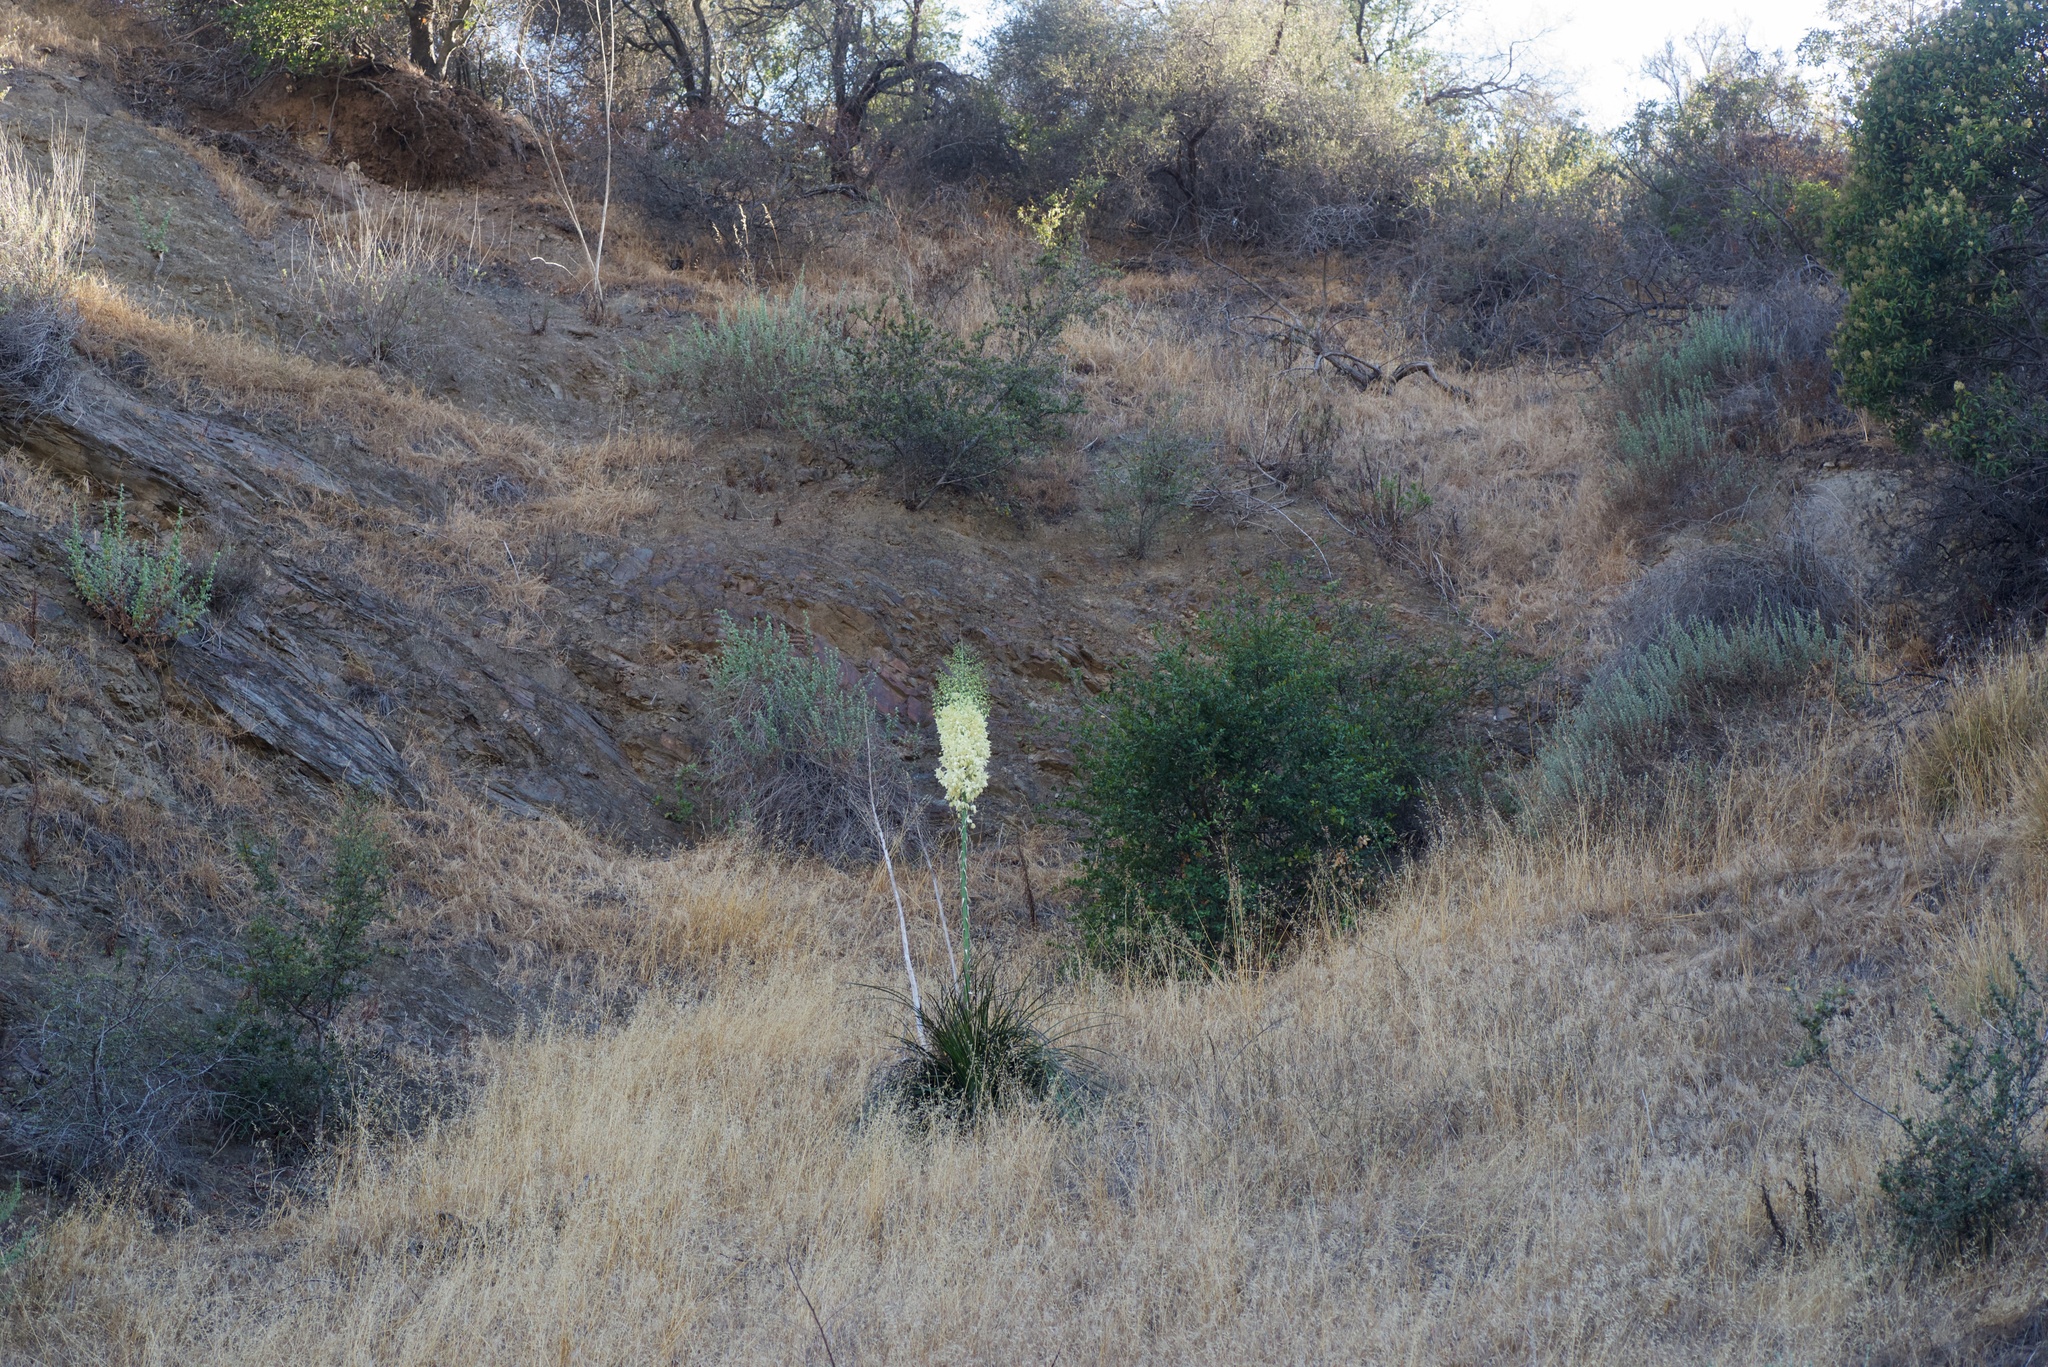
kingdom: Plantae
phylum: Tracheophyta
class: Liliopsida
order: Asparagales
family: Asparagaceae
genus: Hesperoyucca
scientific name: Hesperoyucca whipplei
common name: Our lord's-candle
